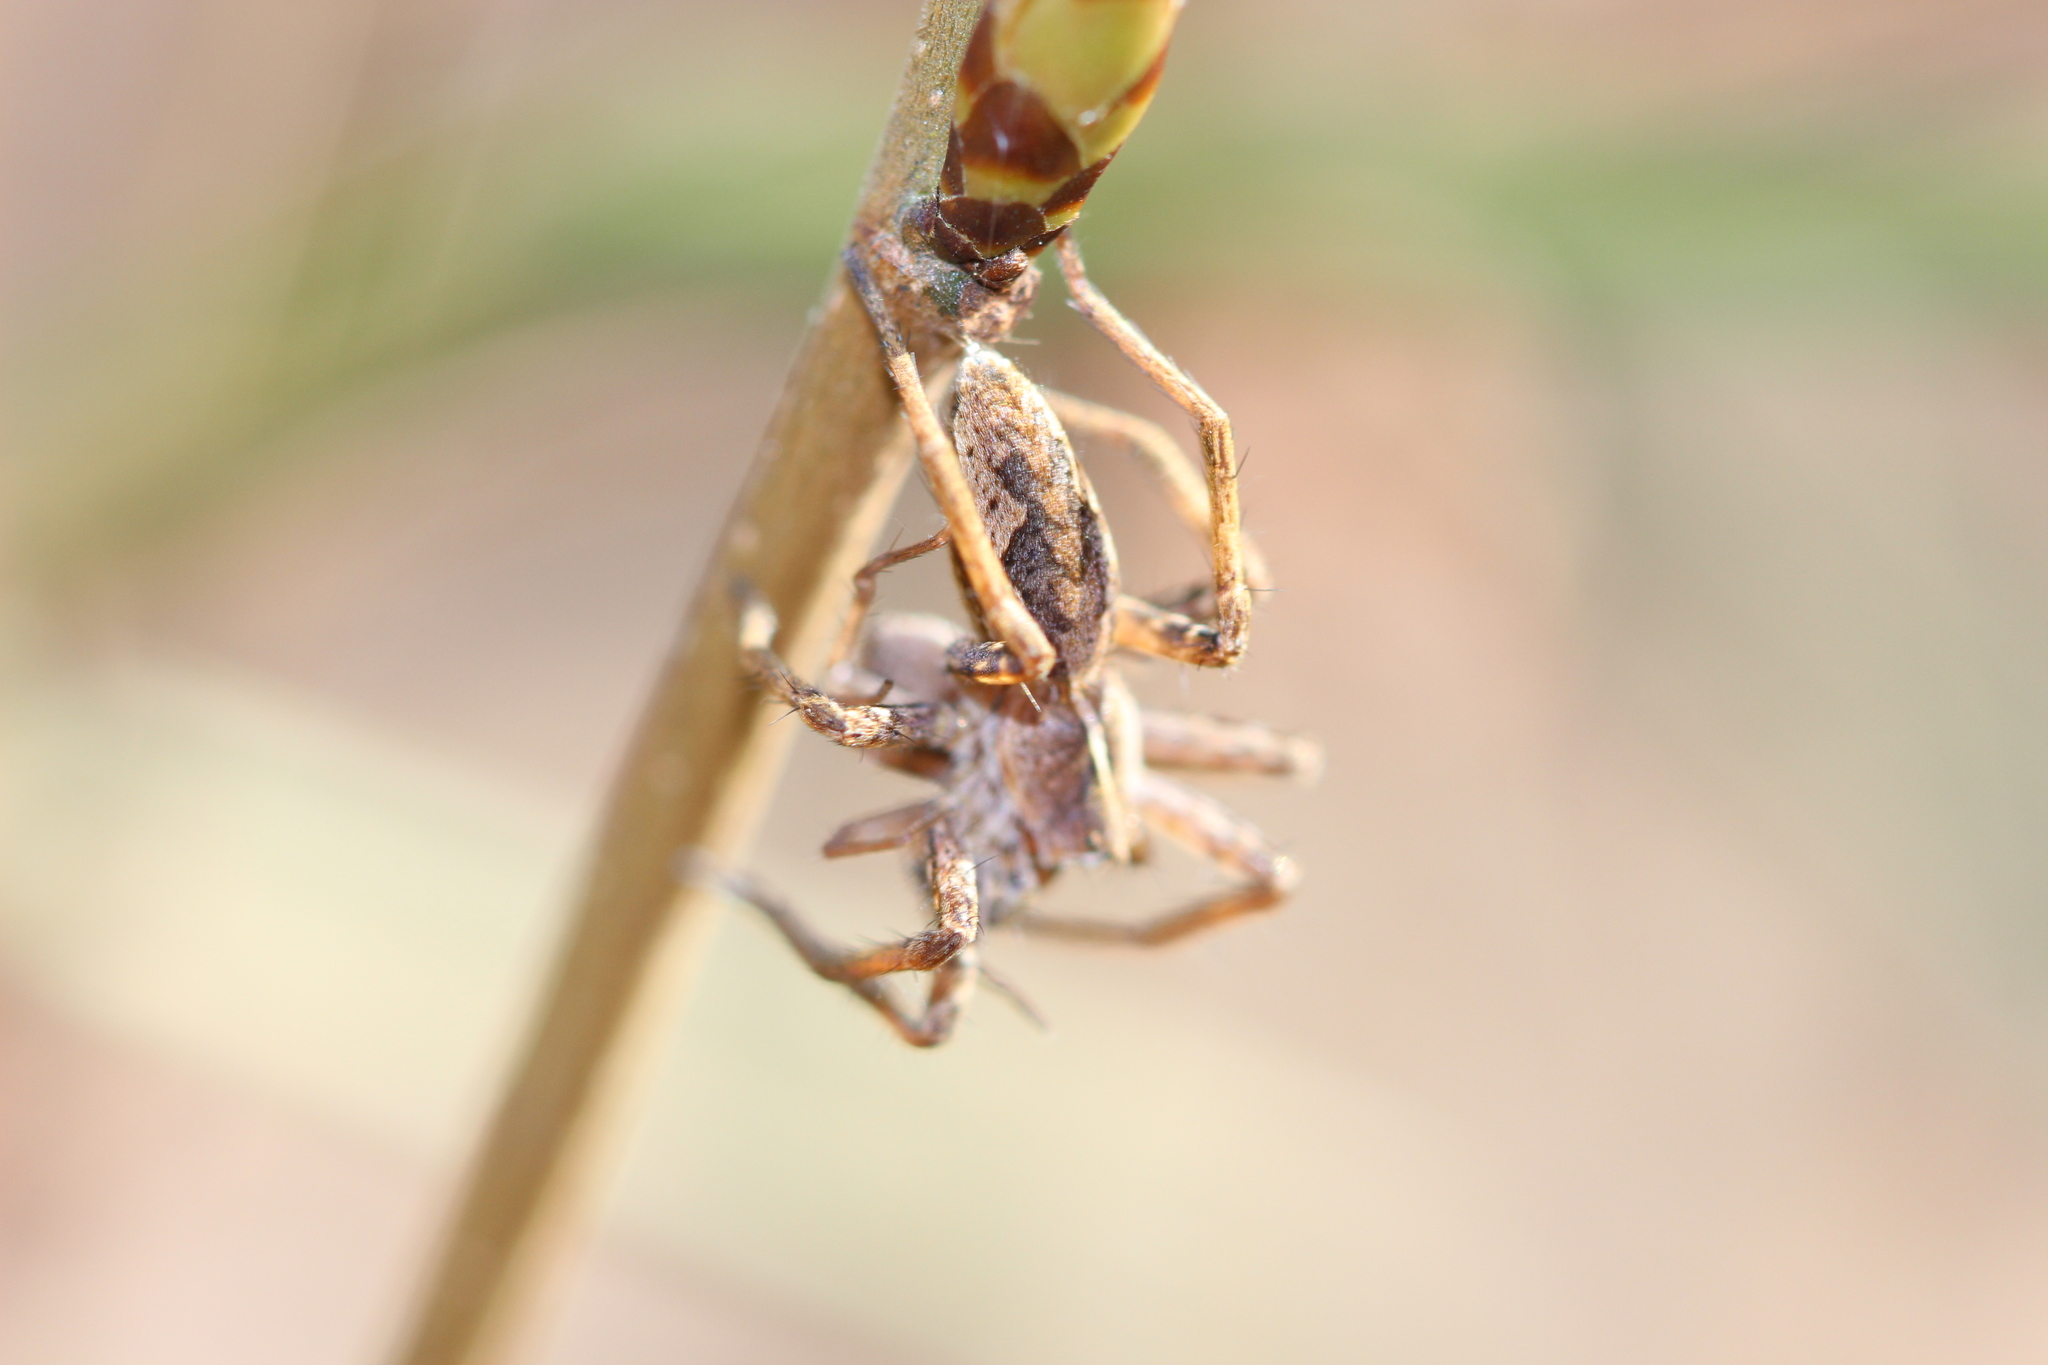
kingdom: Animalia
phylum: Arthropoda
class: Arachnida
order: Araneae
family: Pisauridae
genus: Pisaura
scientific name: Pisaura mirabilis
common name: Tent spider
